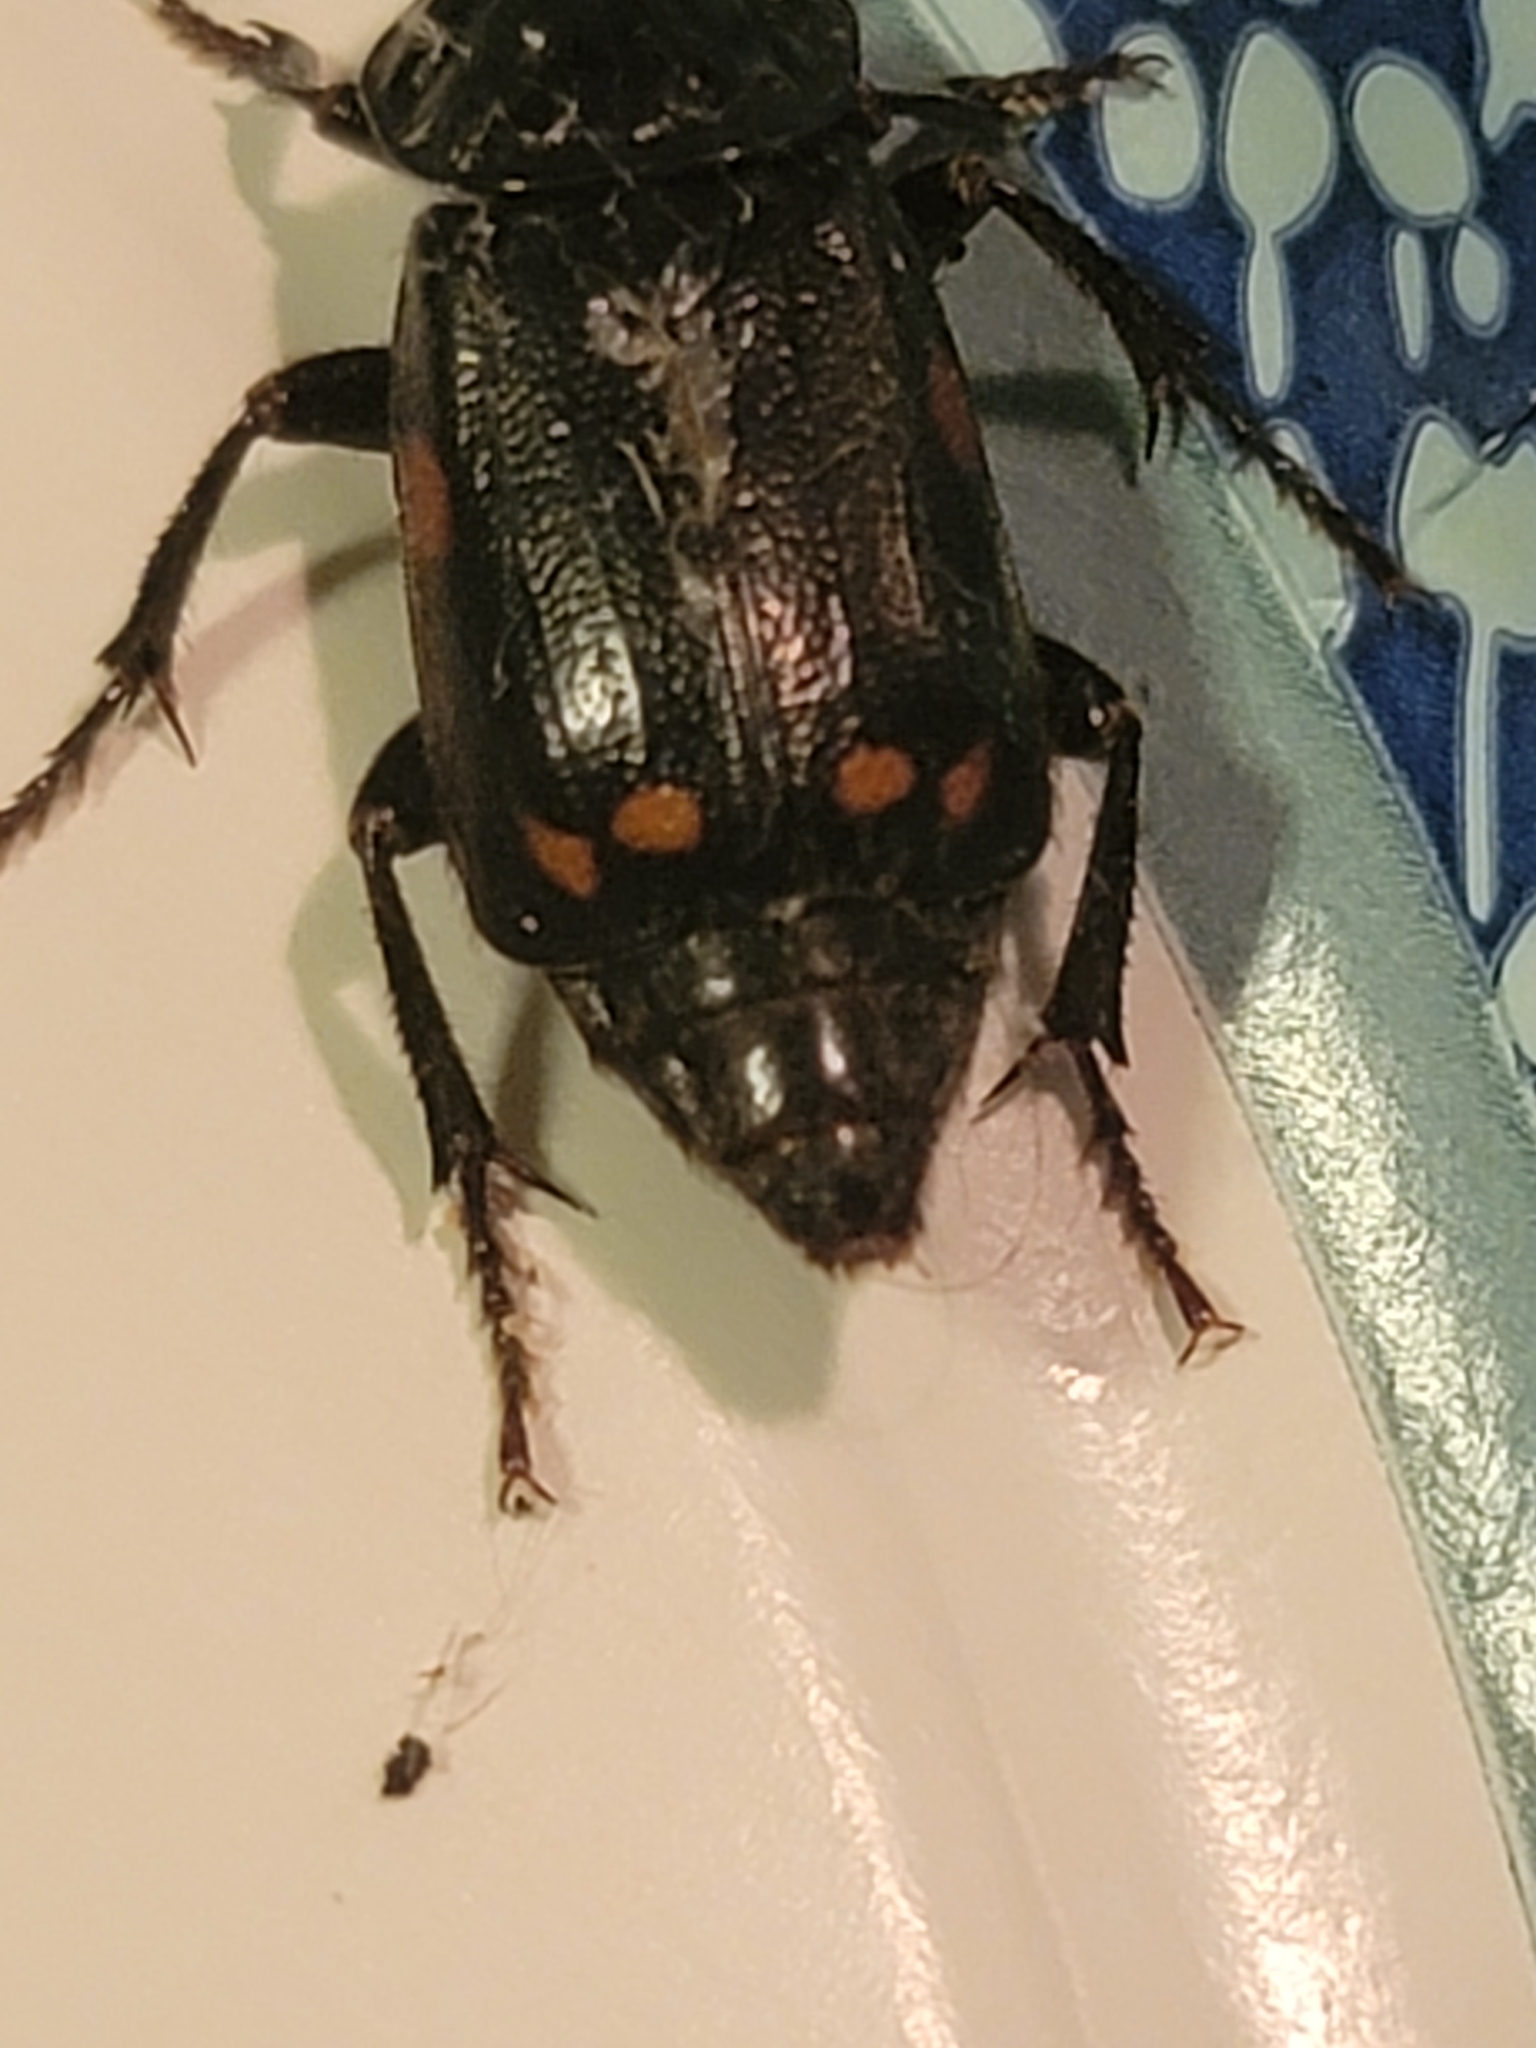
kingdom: Animalia
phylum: Arthropoda
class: Insecta
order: Coleoptera
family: Staphylinidae
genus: Nicrophorus
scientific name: Nicrophorus pustulatus
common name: Pustulated carrion beetle
